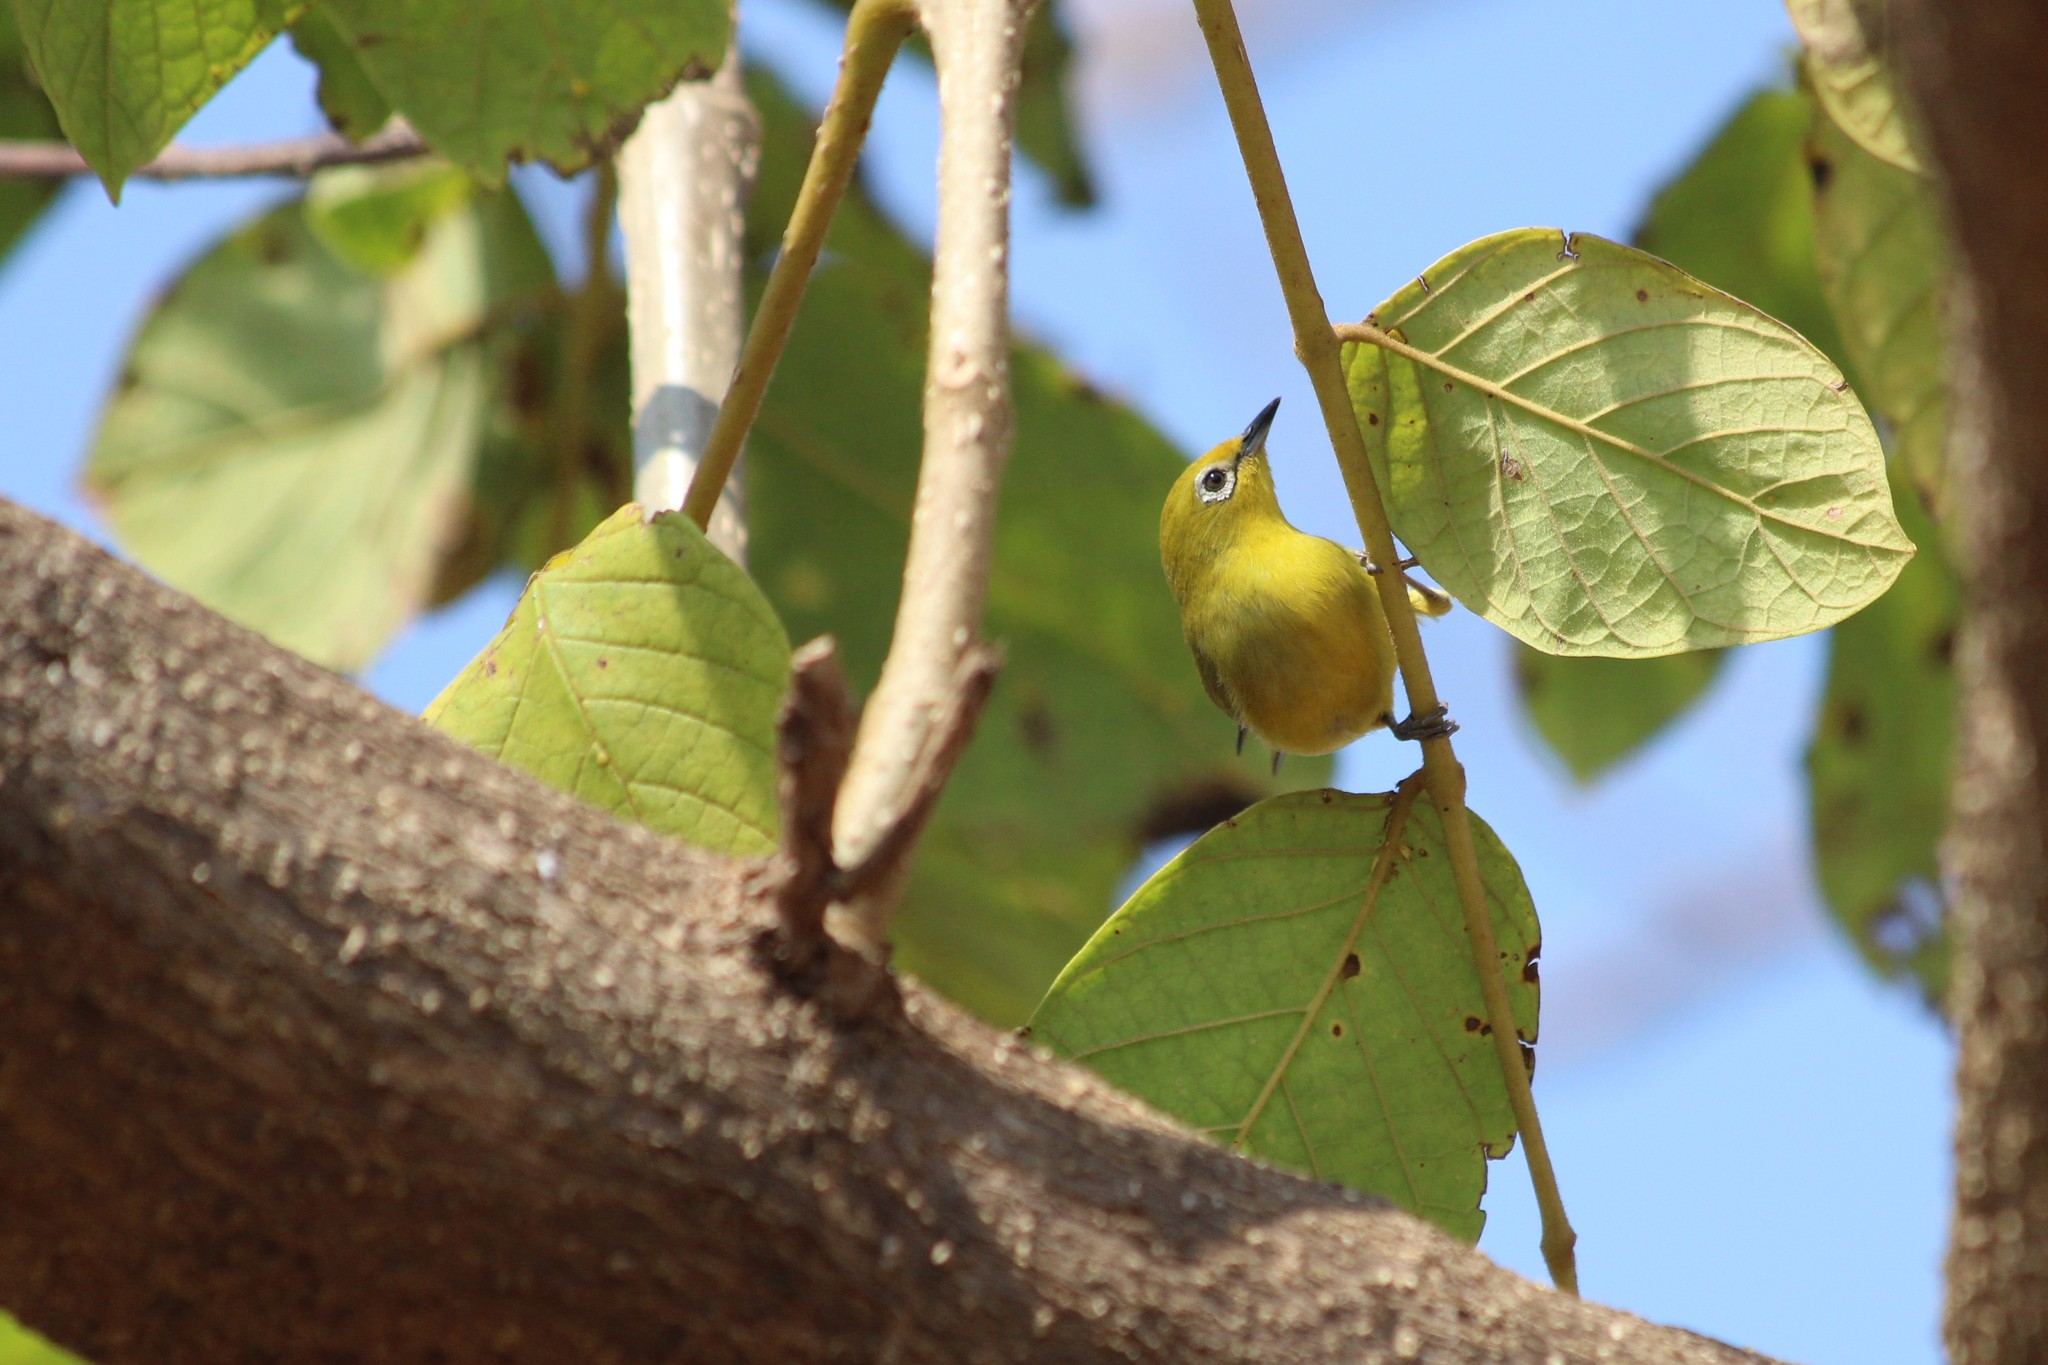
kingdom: Animalia
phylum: Chordata
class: Aves
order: Passeriformes
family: Zosteropidae
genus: Zosterops
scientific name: Zosterops anderssoni
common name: Southern yellow white-eye
